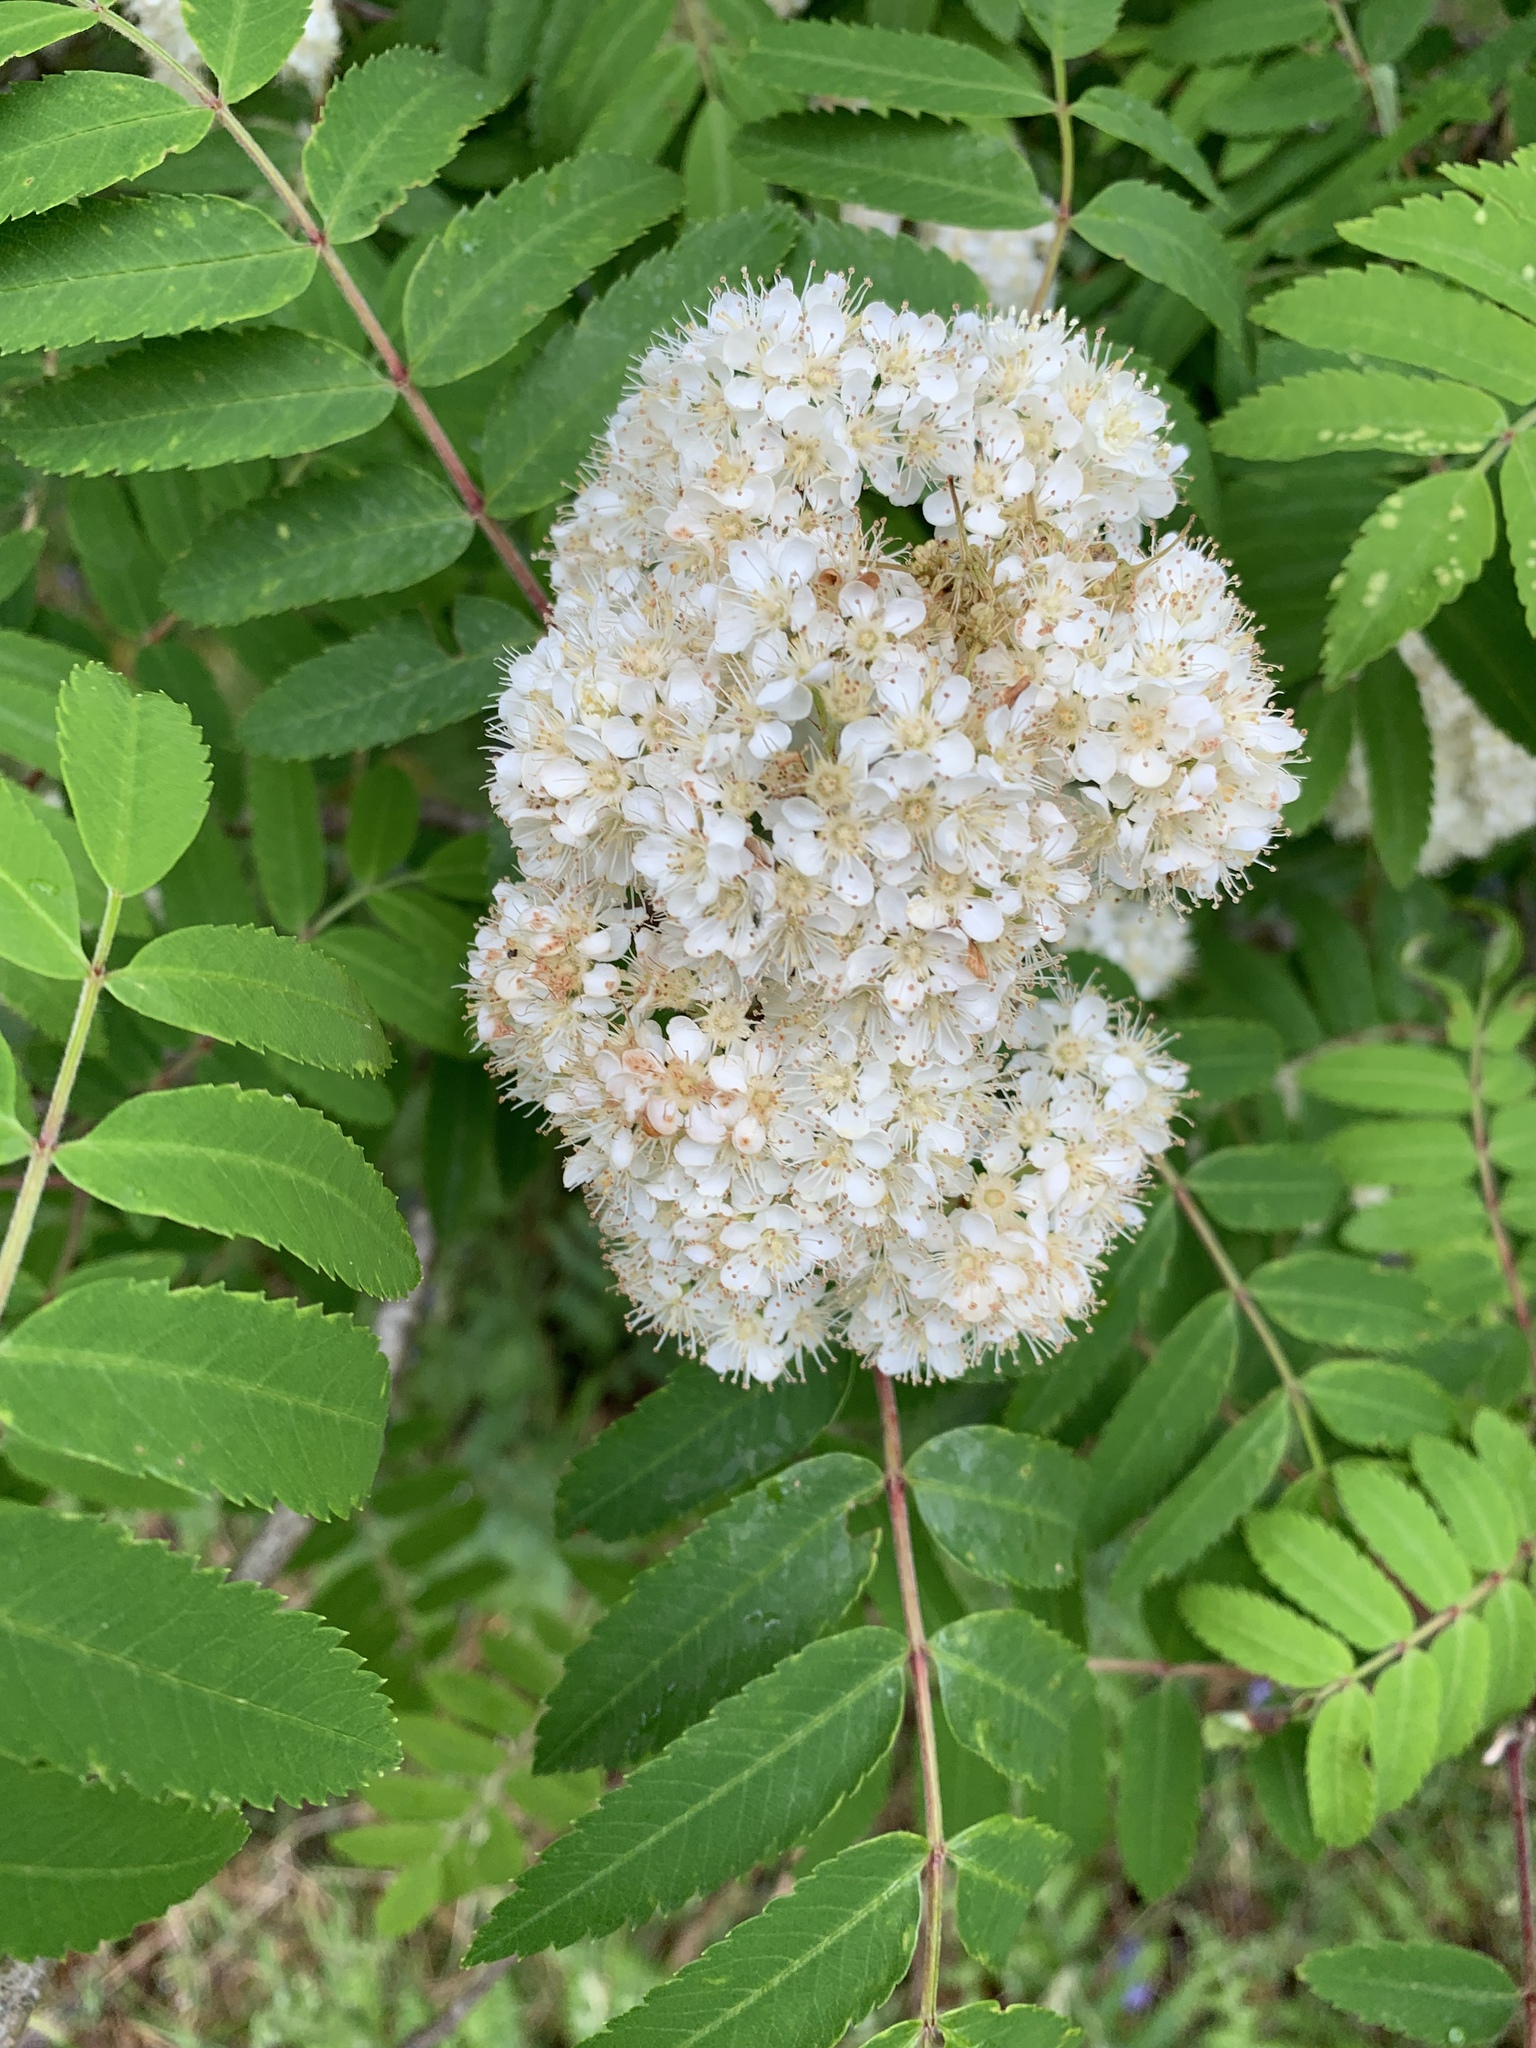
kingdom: Plantae
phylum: Tracheophyta
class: Magnoliopsida
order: Rosales
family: Rosaceae
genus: Sorbus
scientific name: Sorbus aucuparia
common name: Rowan
